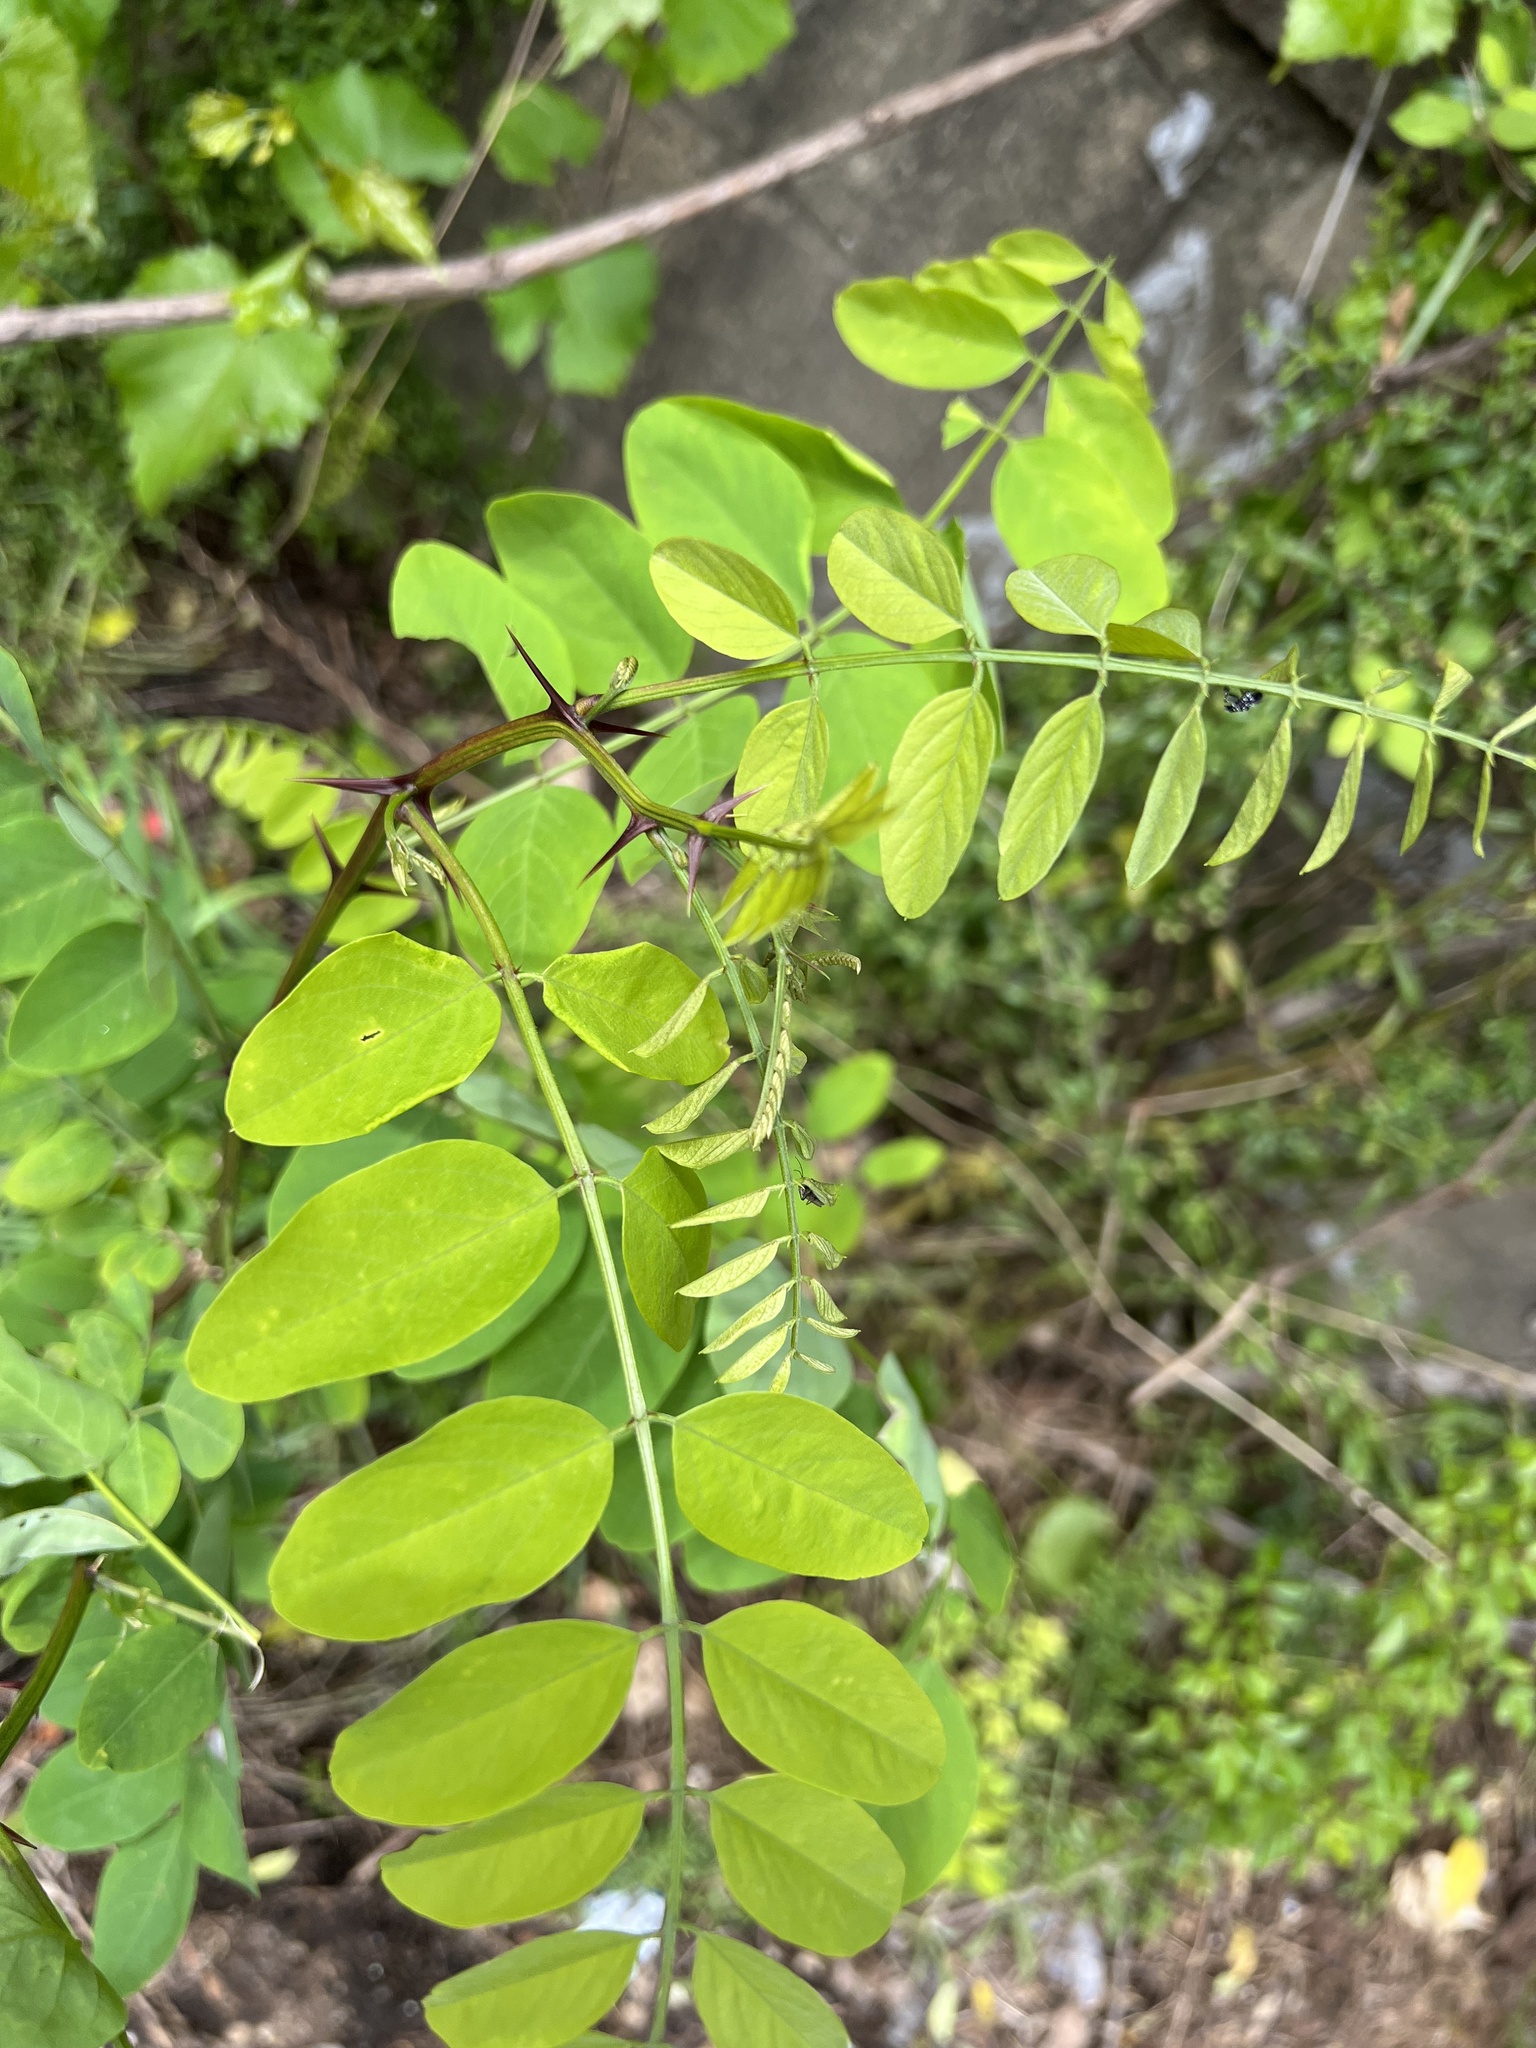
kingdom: Plantae
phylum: Tracheophyta
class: Magnoliopsida
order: Fabales
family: Fabaceae
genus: Robinia
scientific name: Robinia pseudoacacia
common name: Black locust
